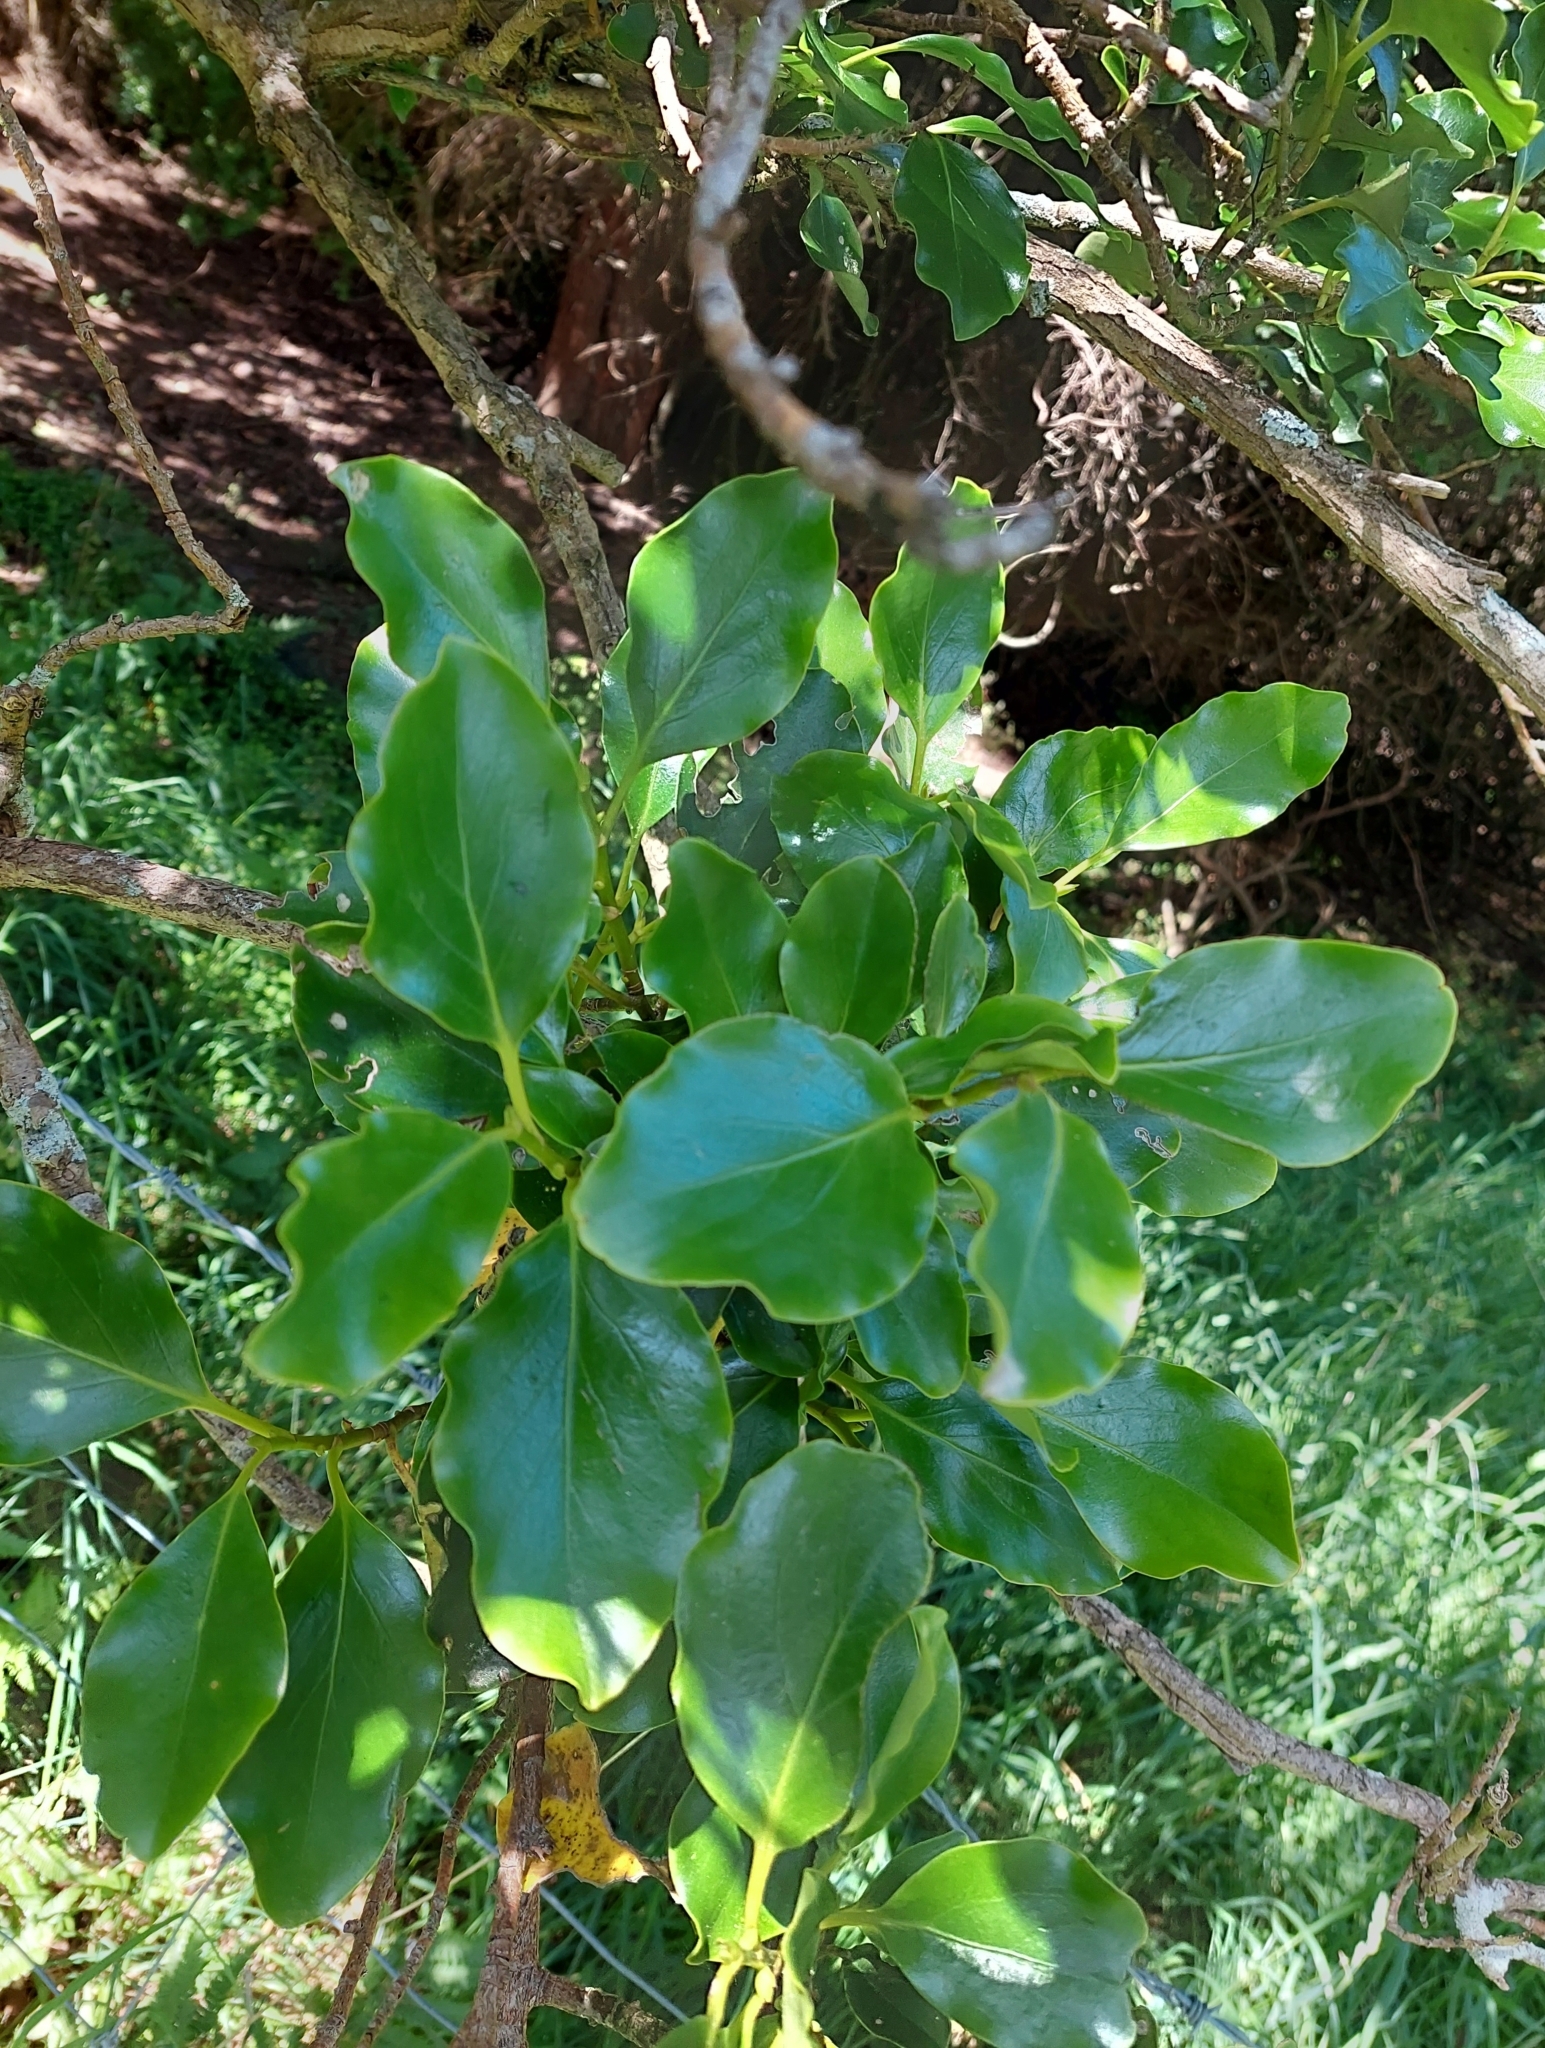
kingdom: Plantae
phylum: Tracheophyta
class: Magnoliopsida
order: Apiales
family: Griseliniaceae
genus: Griselinia
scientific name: Griselinia littoralis
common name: New zealand broadleaf
